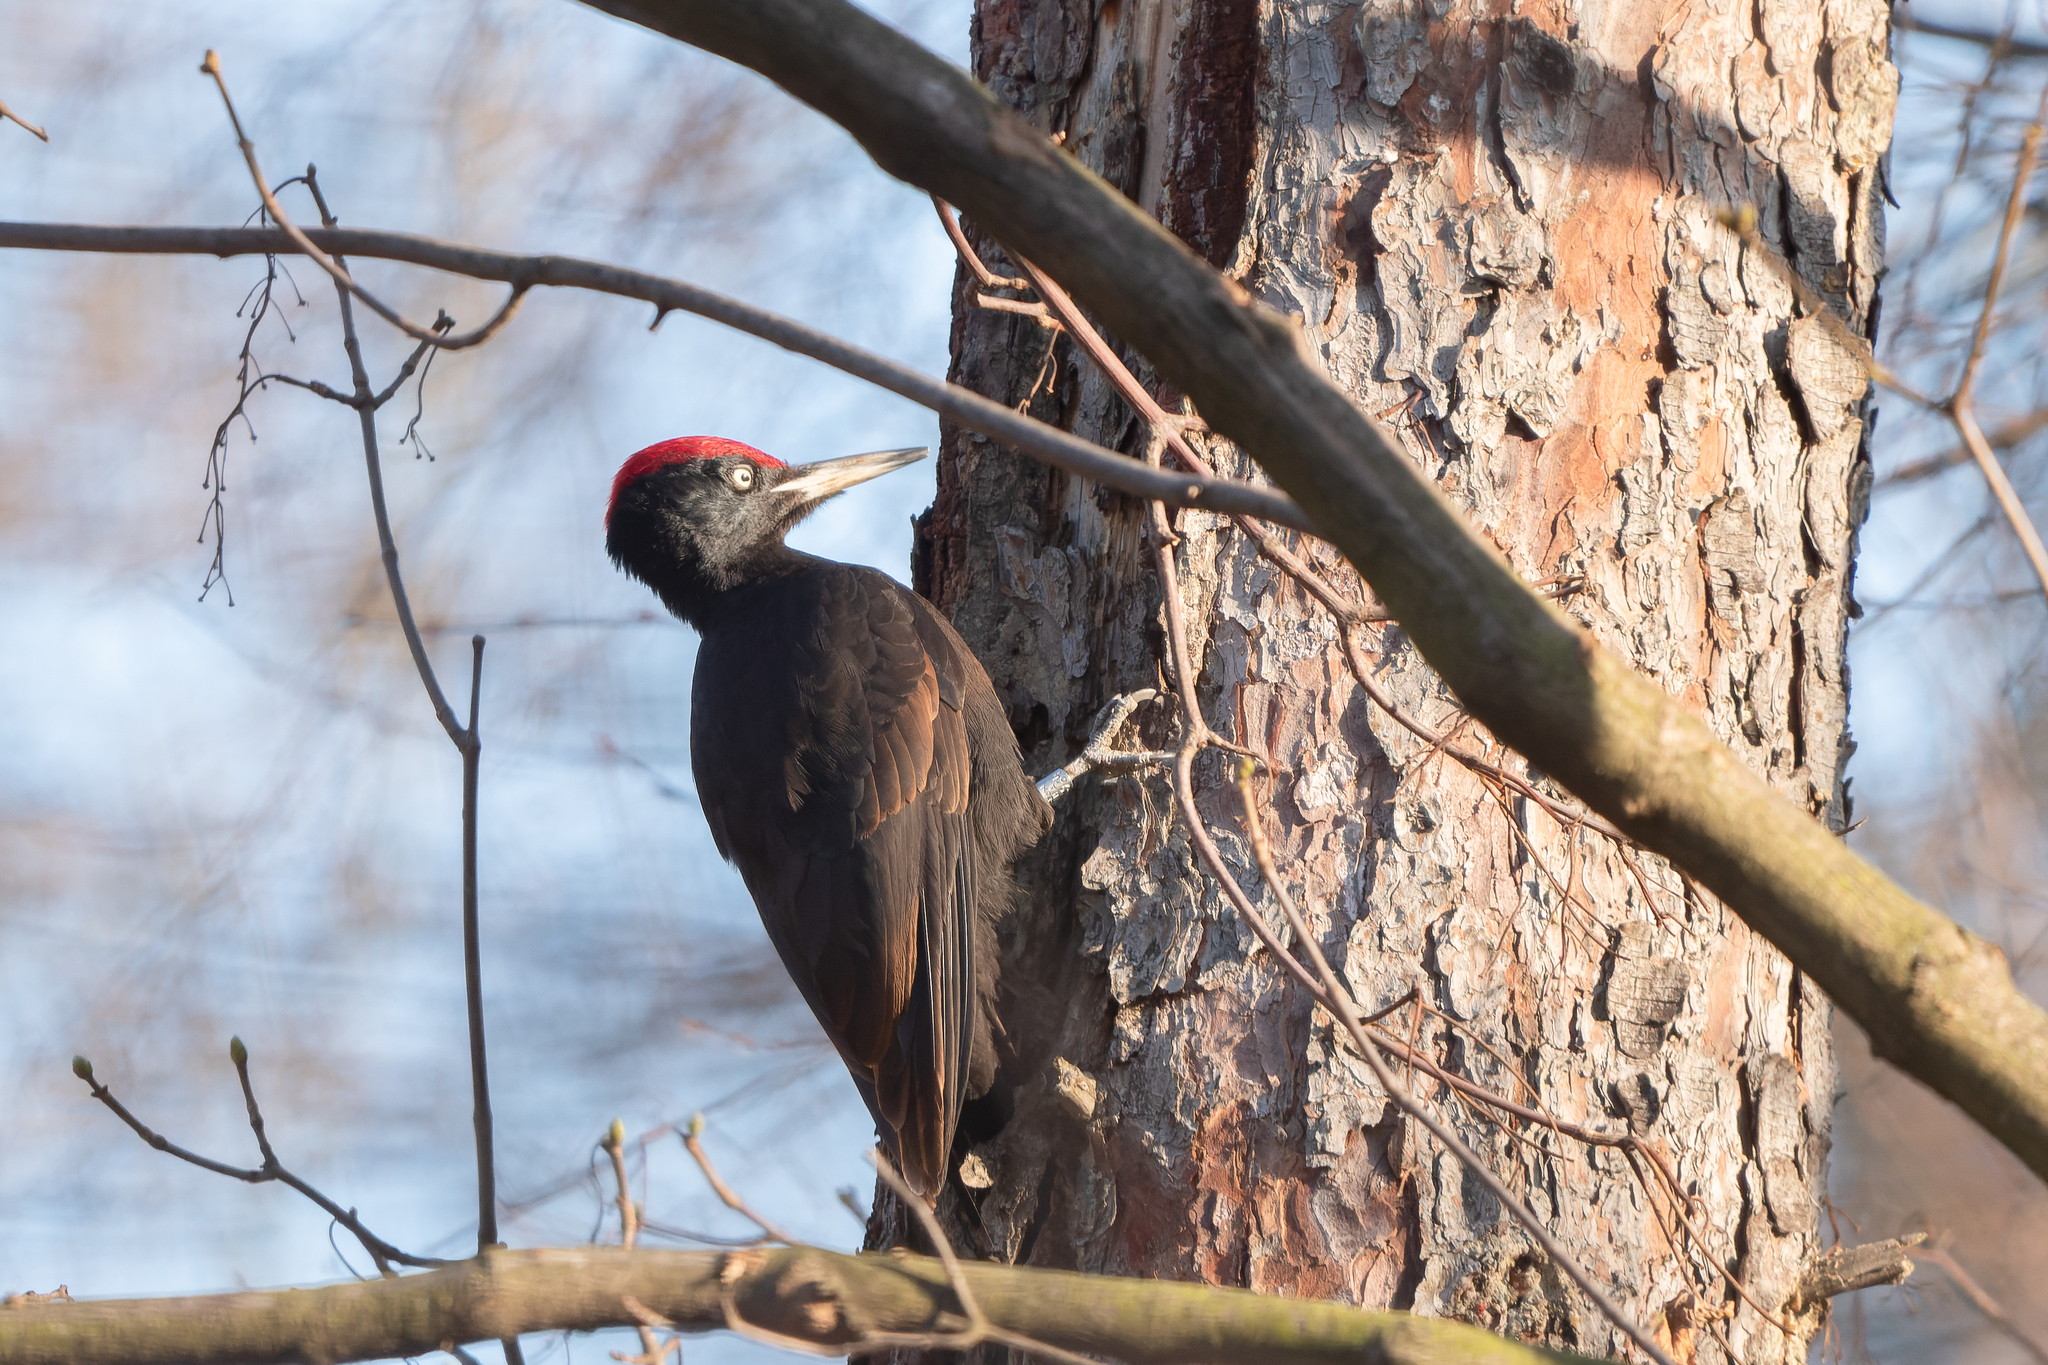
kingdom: Animalia
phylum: Chordata
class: Aves
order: Piciformes
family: Picidae
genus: Dryocopus
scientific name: Dryocopus martius
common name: Black woodpecker
